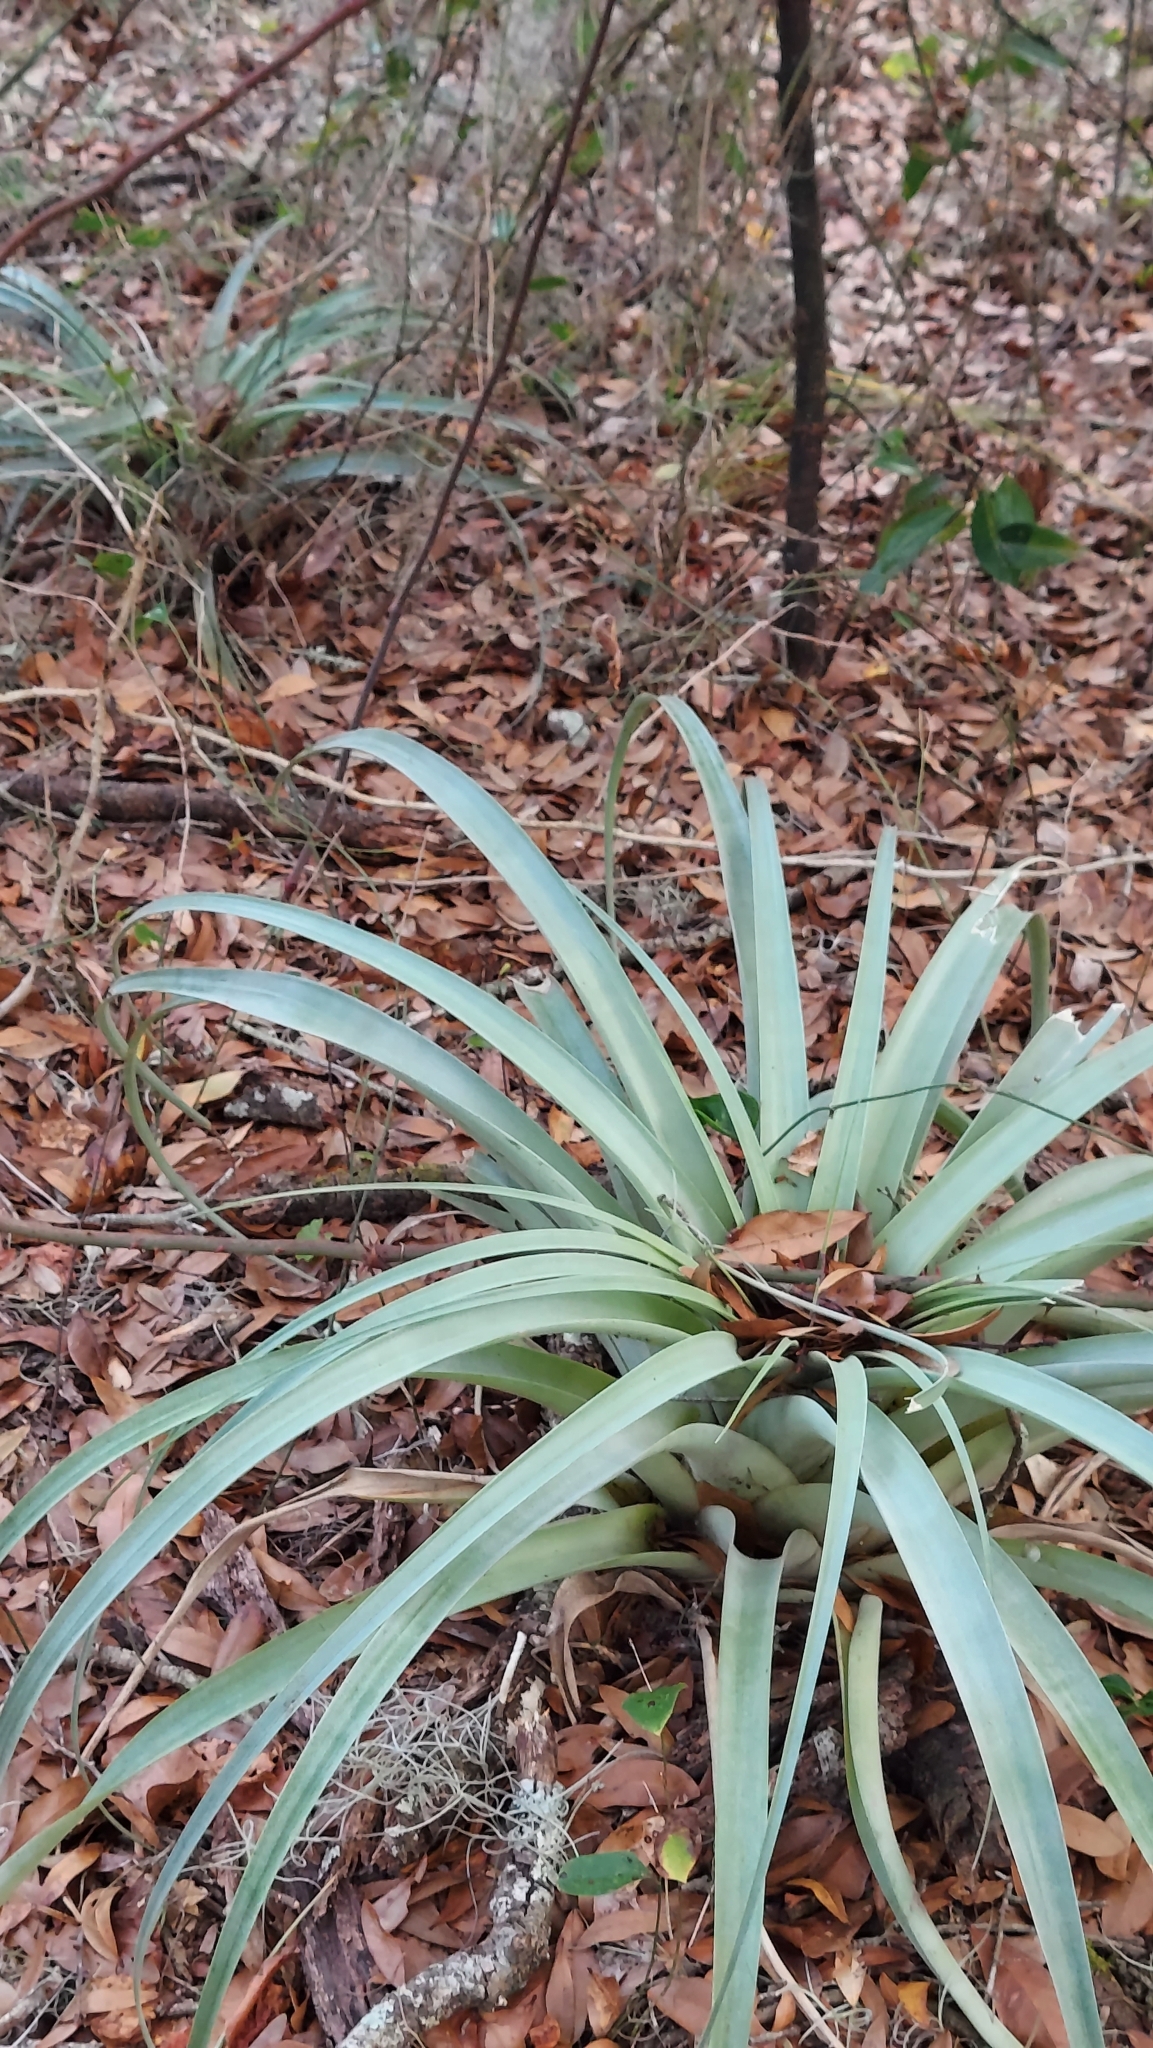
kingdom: Plantae
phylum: Tracheophyta
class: Liliopsida
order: Poales
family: Bromeliaceae
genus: Tillandsia
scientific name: Tillandsia utriculata
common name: Wild pine
